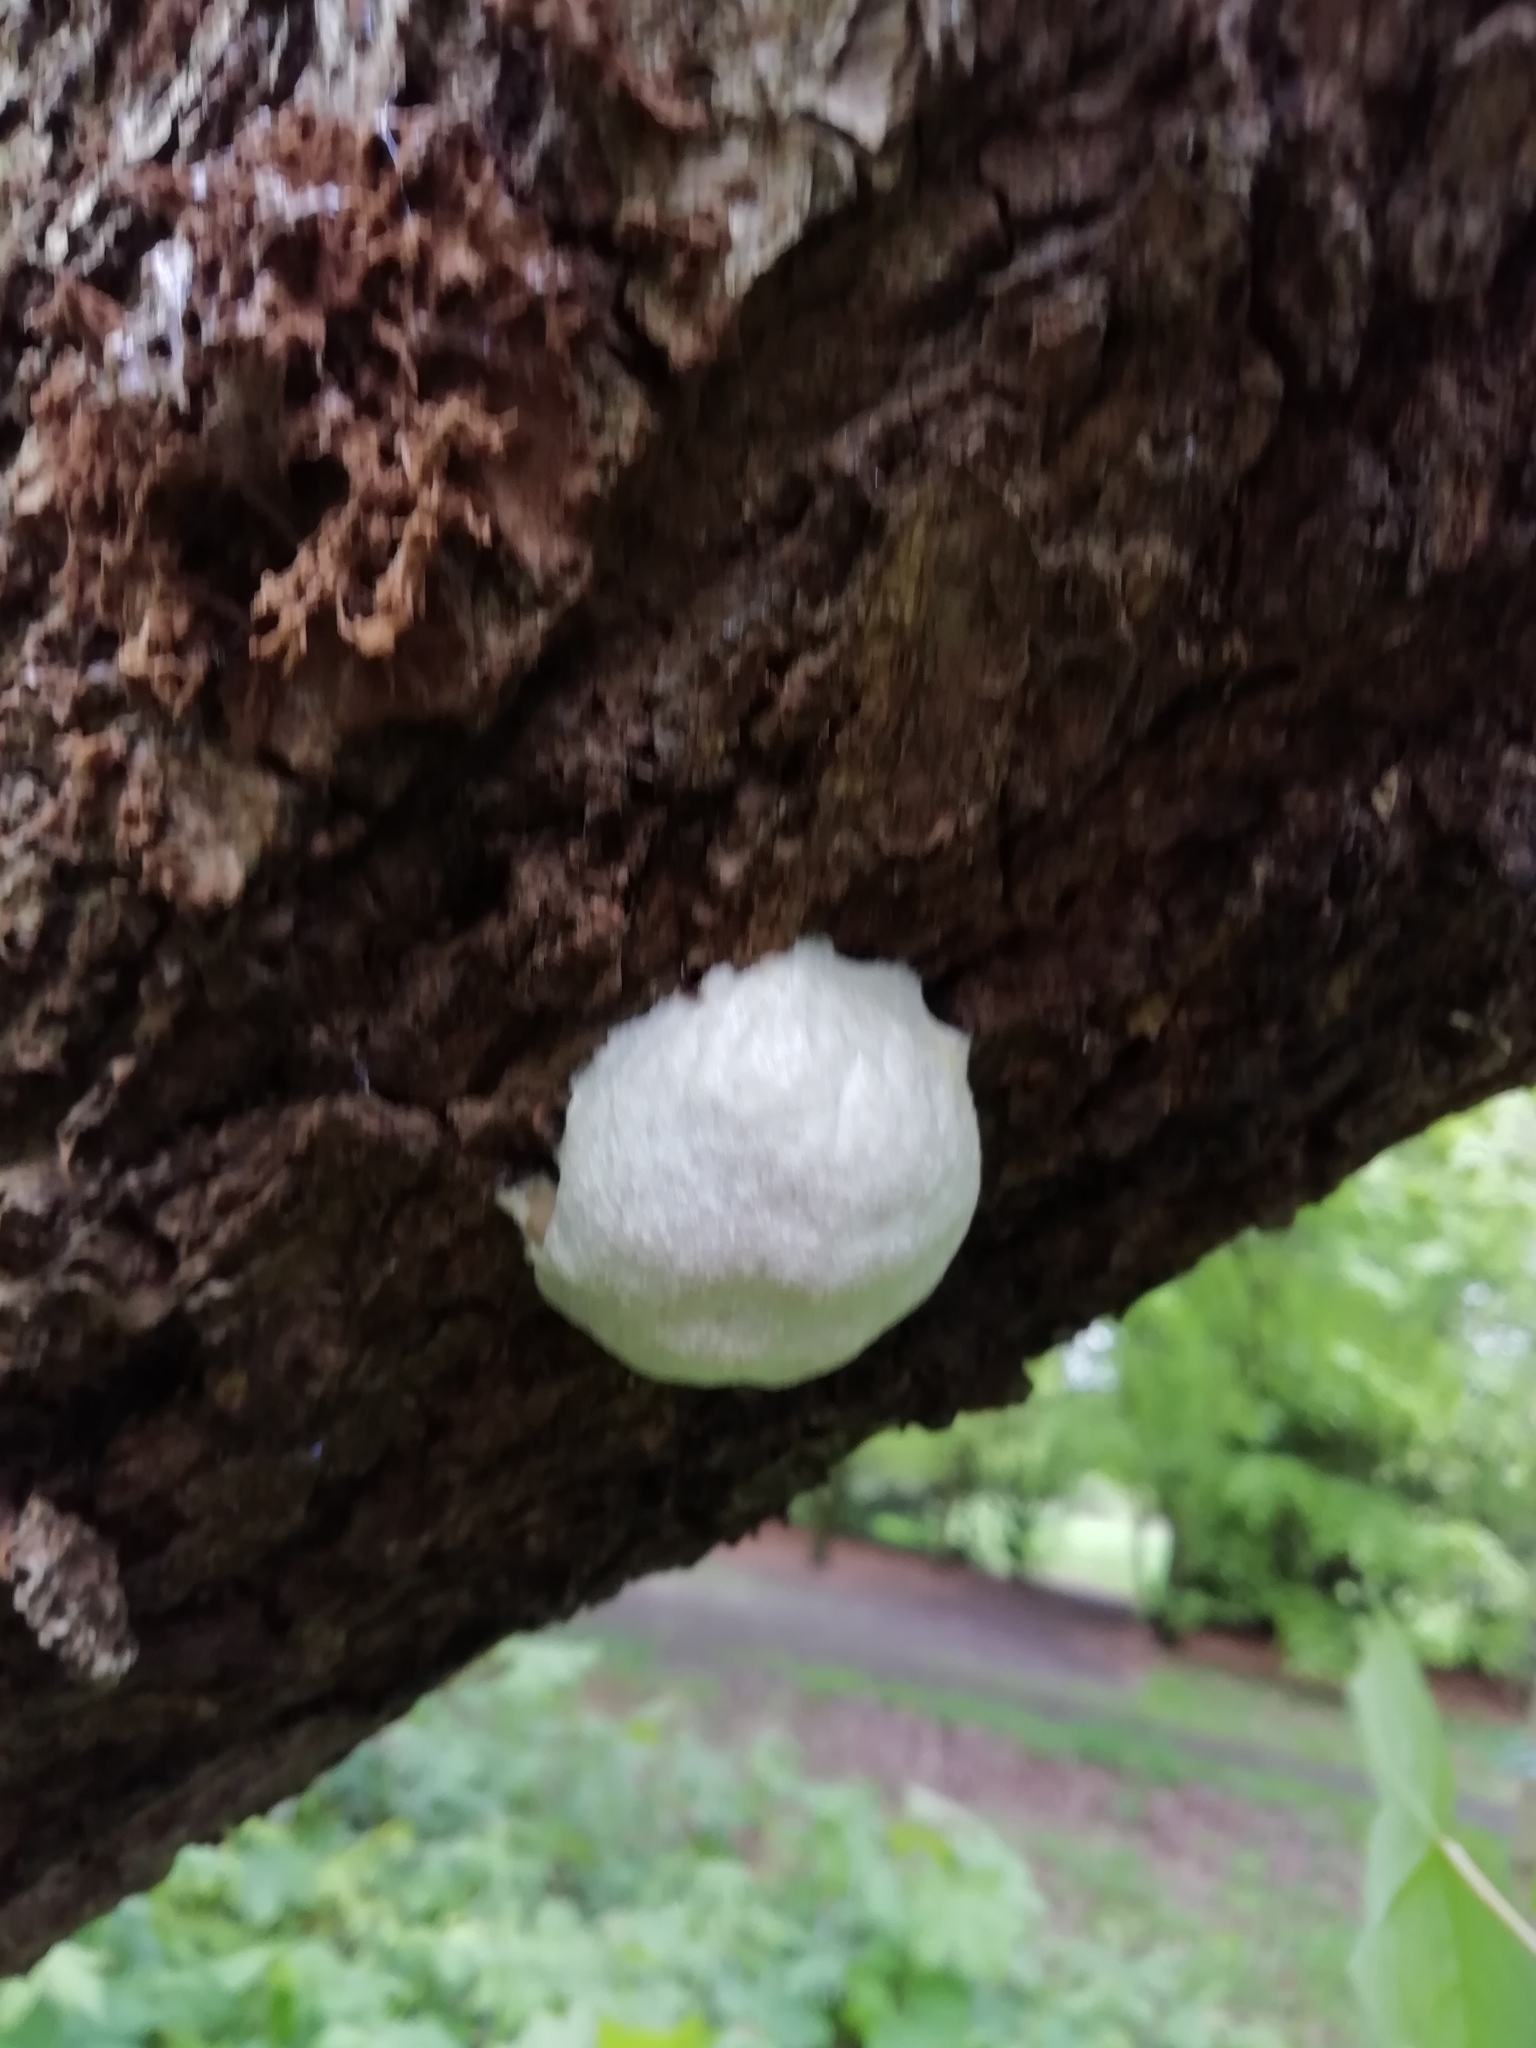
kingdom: Protozoa
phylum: Mycetozoa
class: Myxomycetes
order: Cribrariales
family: Tubiferaceae
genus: Reticularia
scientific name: Reticularia lycoperdon
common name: False puffball
